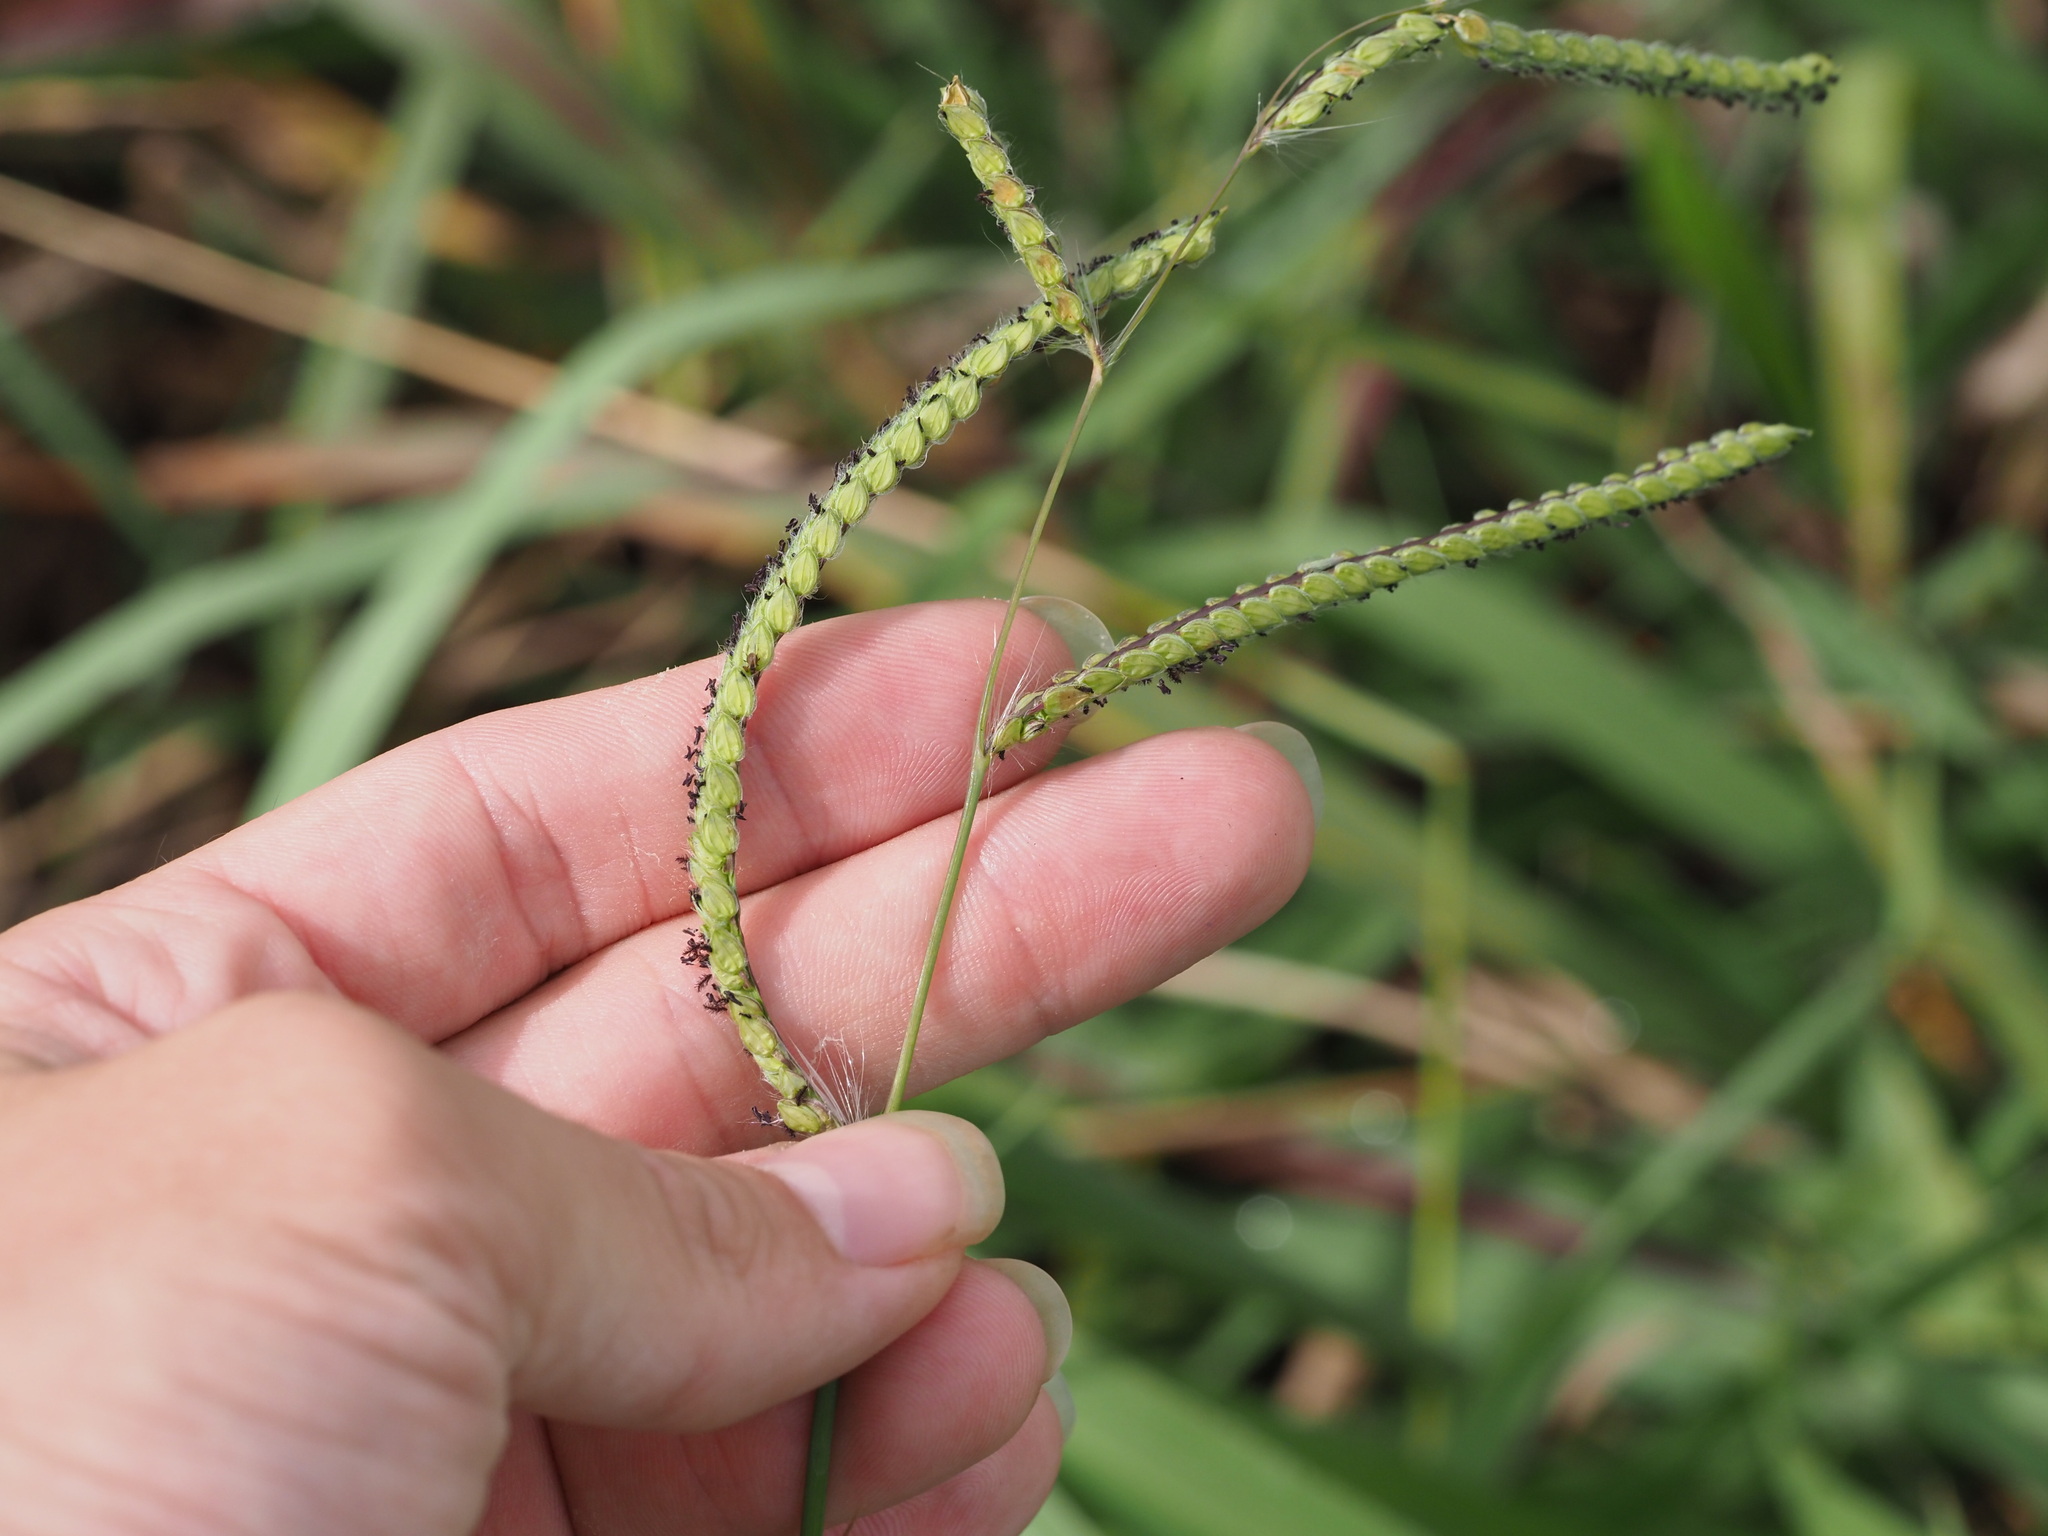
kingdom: Plantae
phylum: Tracheophyta
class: Liliopsida
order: Poales
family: Poaceae
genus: Paspalum
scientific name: Paspalum dilatatum
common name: Dallisgrass
